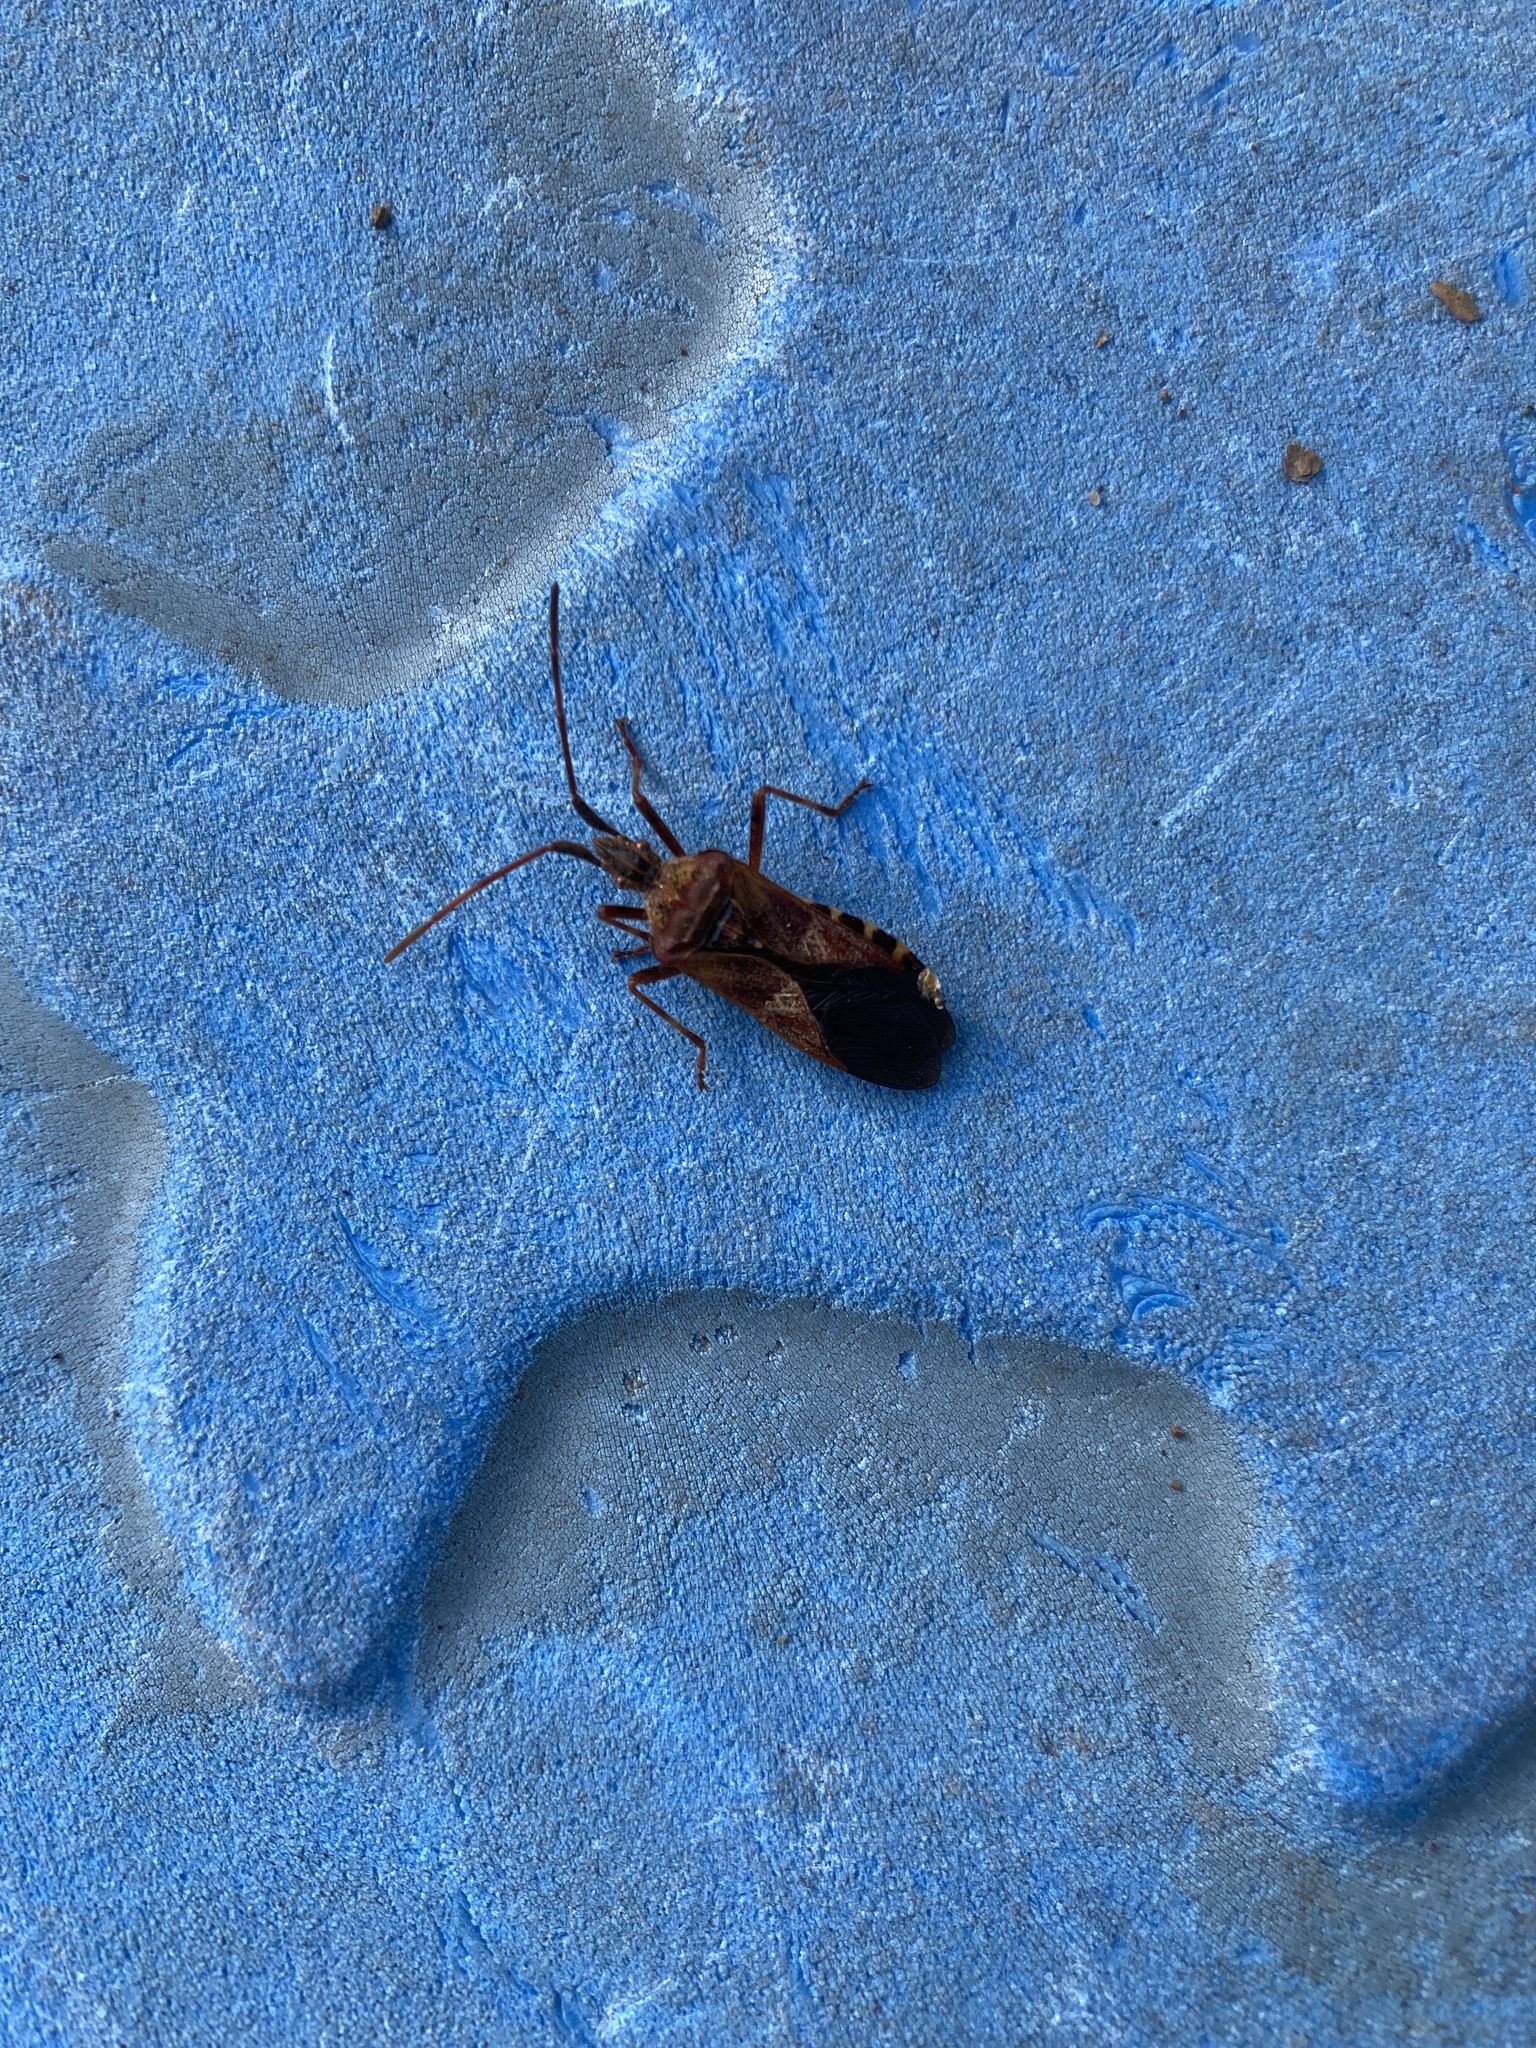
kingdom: Animalia
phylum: Arthropoda
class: Insecta
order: Hemiptera
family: Coreidae
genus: Leptoglossus
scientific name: Leptoglossus occidentalis
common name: Western conifer-seed bug
